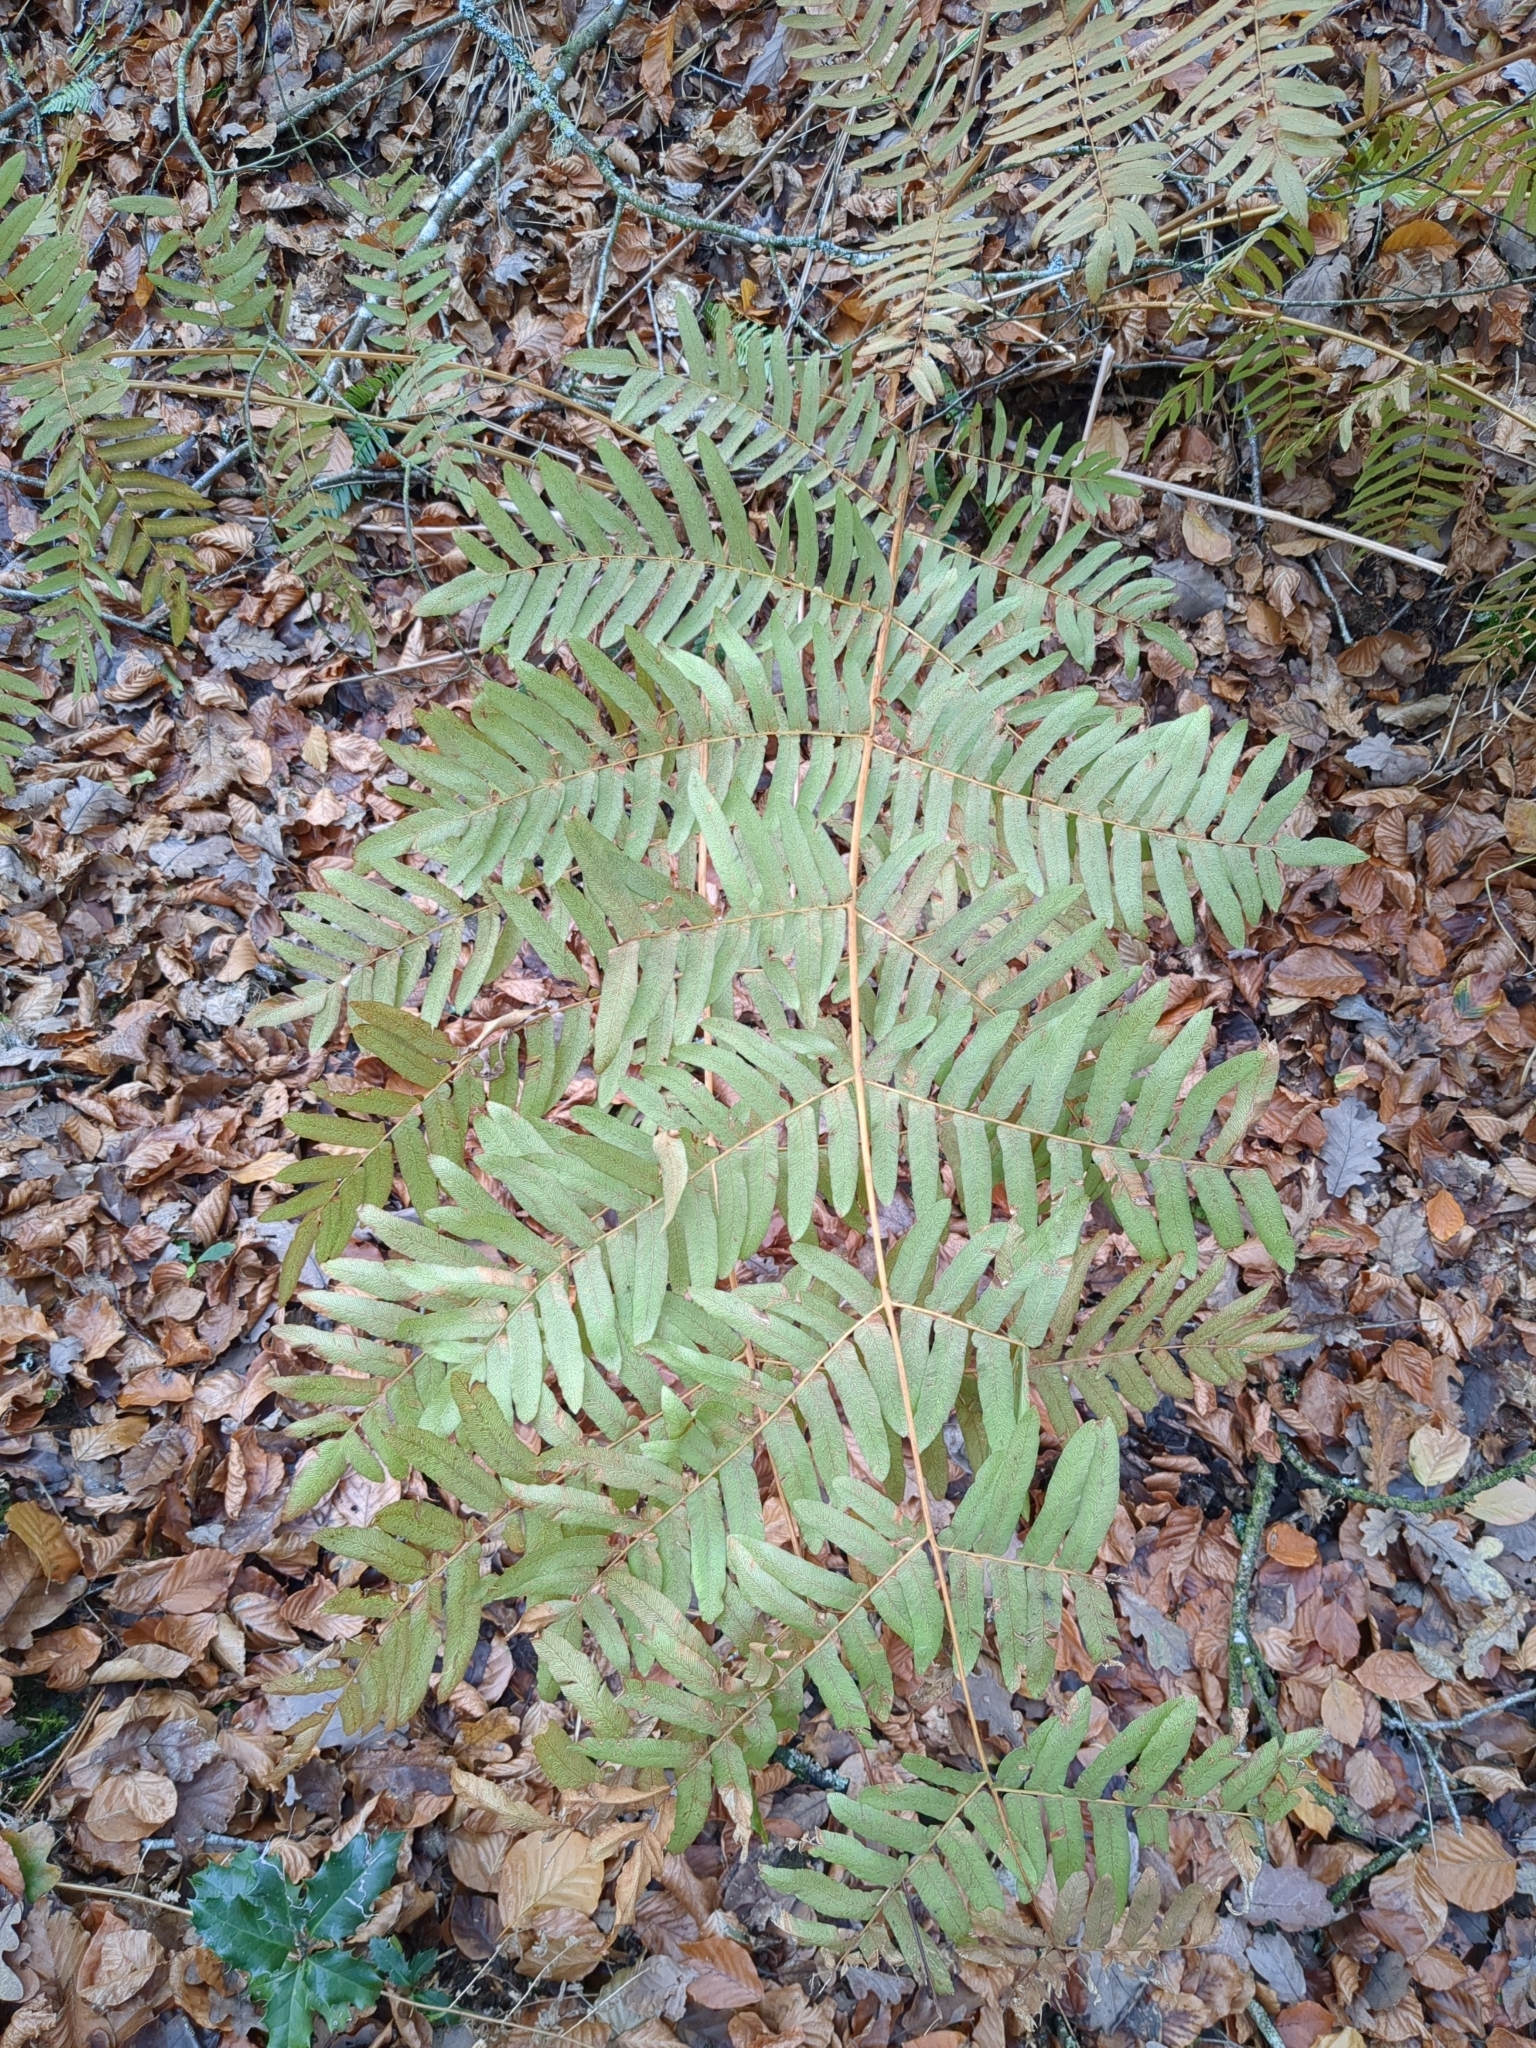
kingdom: Plantae
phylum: Tracheophyta
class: Polypodiopsida
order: Osmundales
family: Osmundaceae
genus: Osmunda
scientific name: Osmunda regalis
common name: Royal fern
